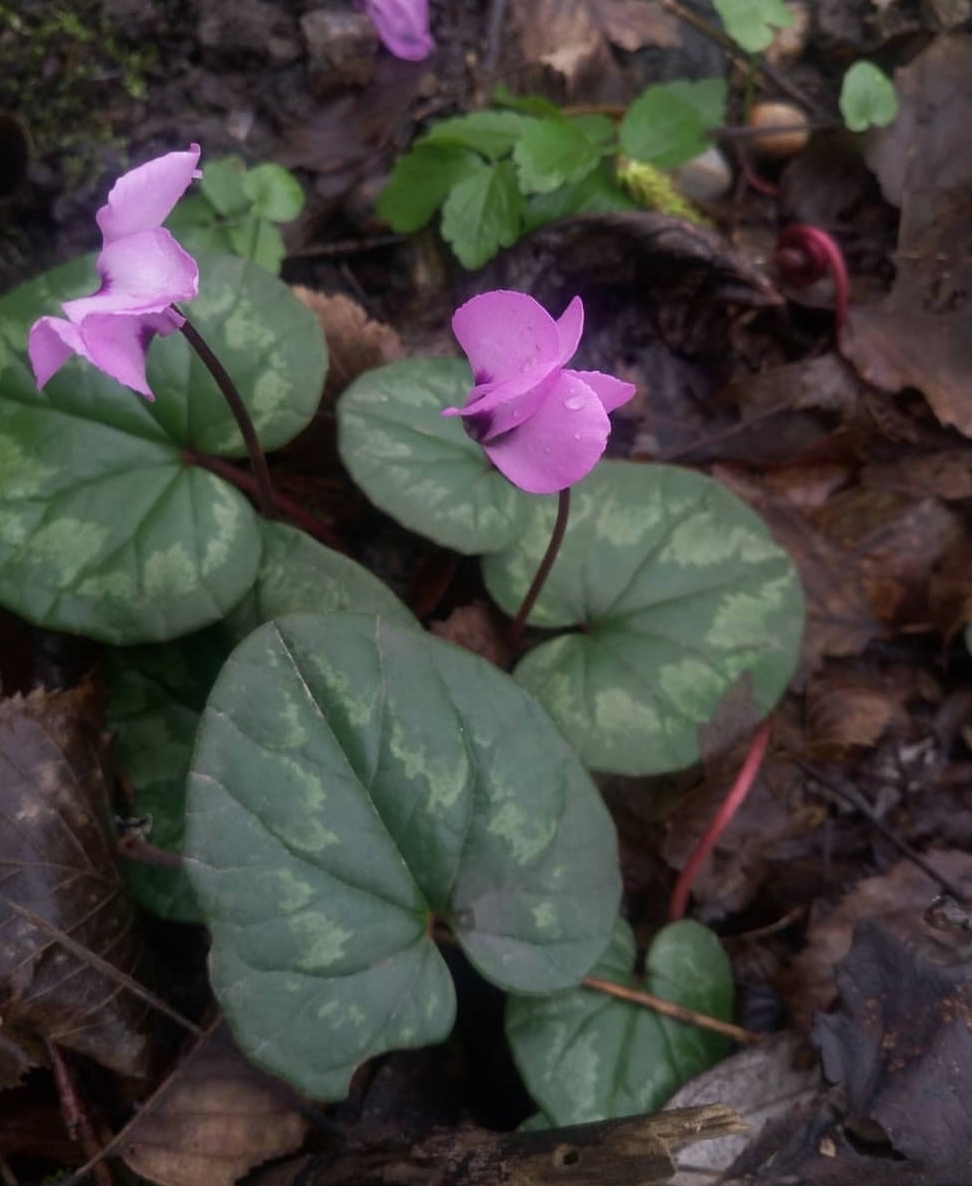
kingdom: Plantae
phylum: Tracheophyta
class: Magnoliopsida
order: Ericales
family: Primulaceae
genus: Cyclamen
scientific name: Cyclamen coum
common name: Eastern sowbread
